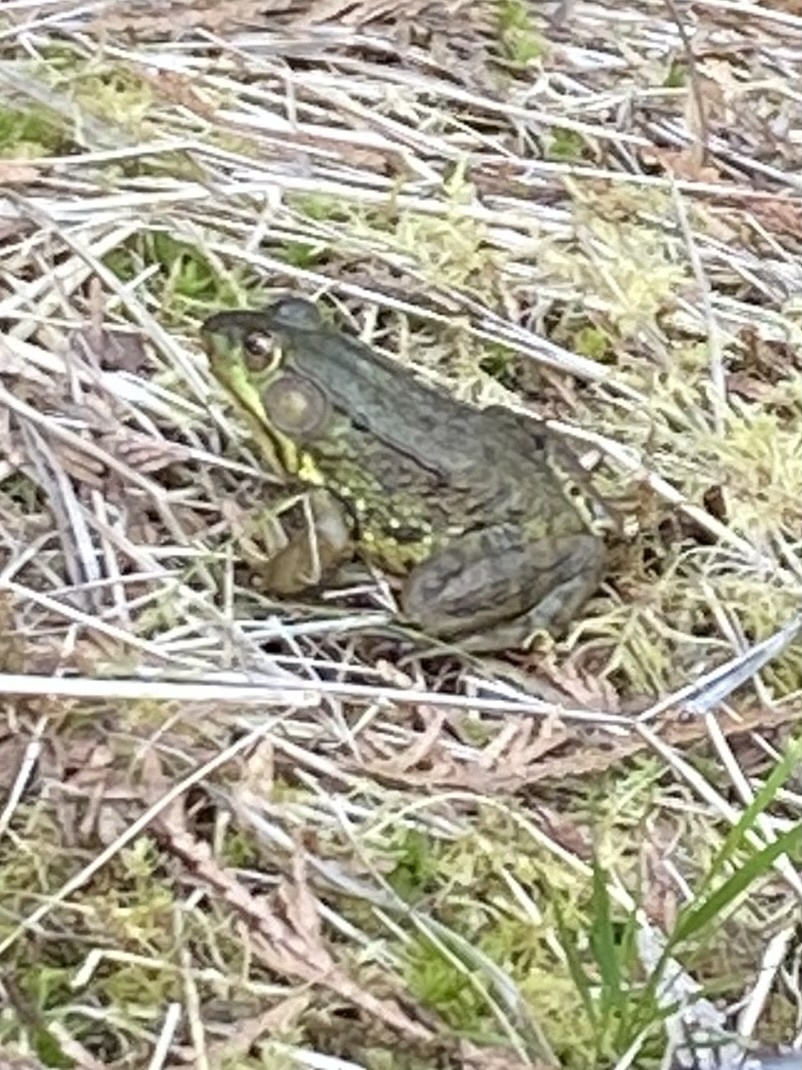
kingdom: Animalia
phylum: Chordata
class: Amphibia
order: Anura
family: Ranidae
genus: Lithobates
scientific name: Lithobates clamitans
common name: Green frog
